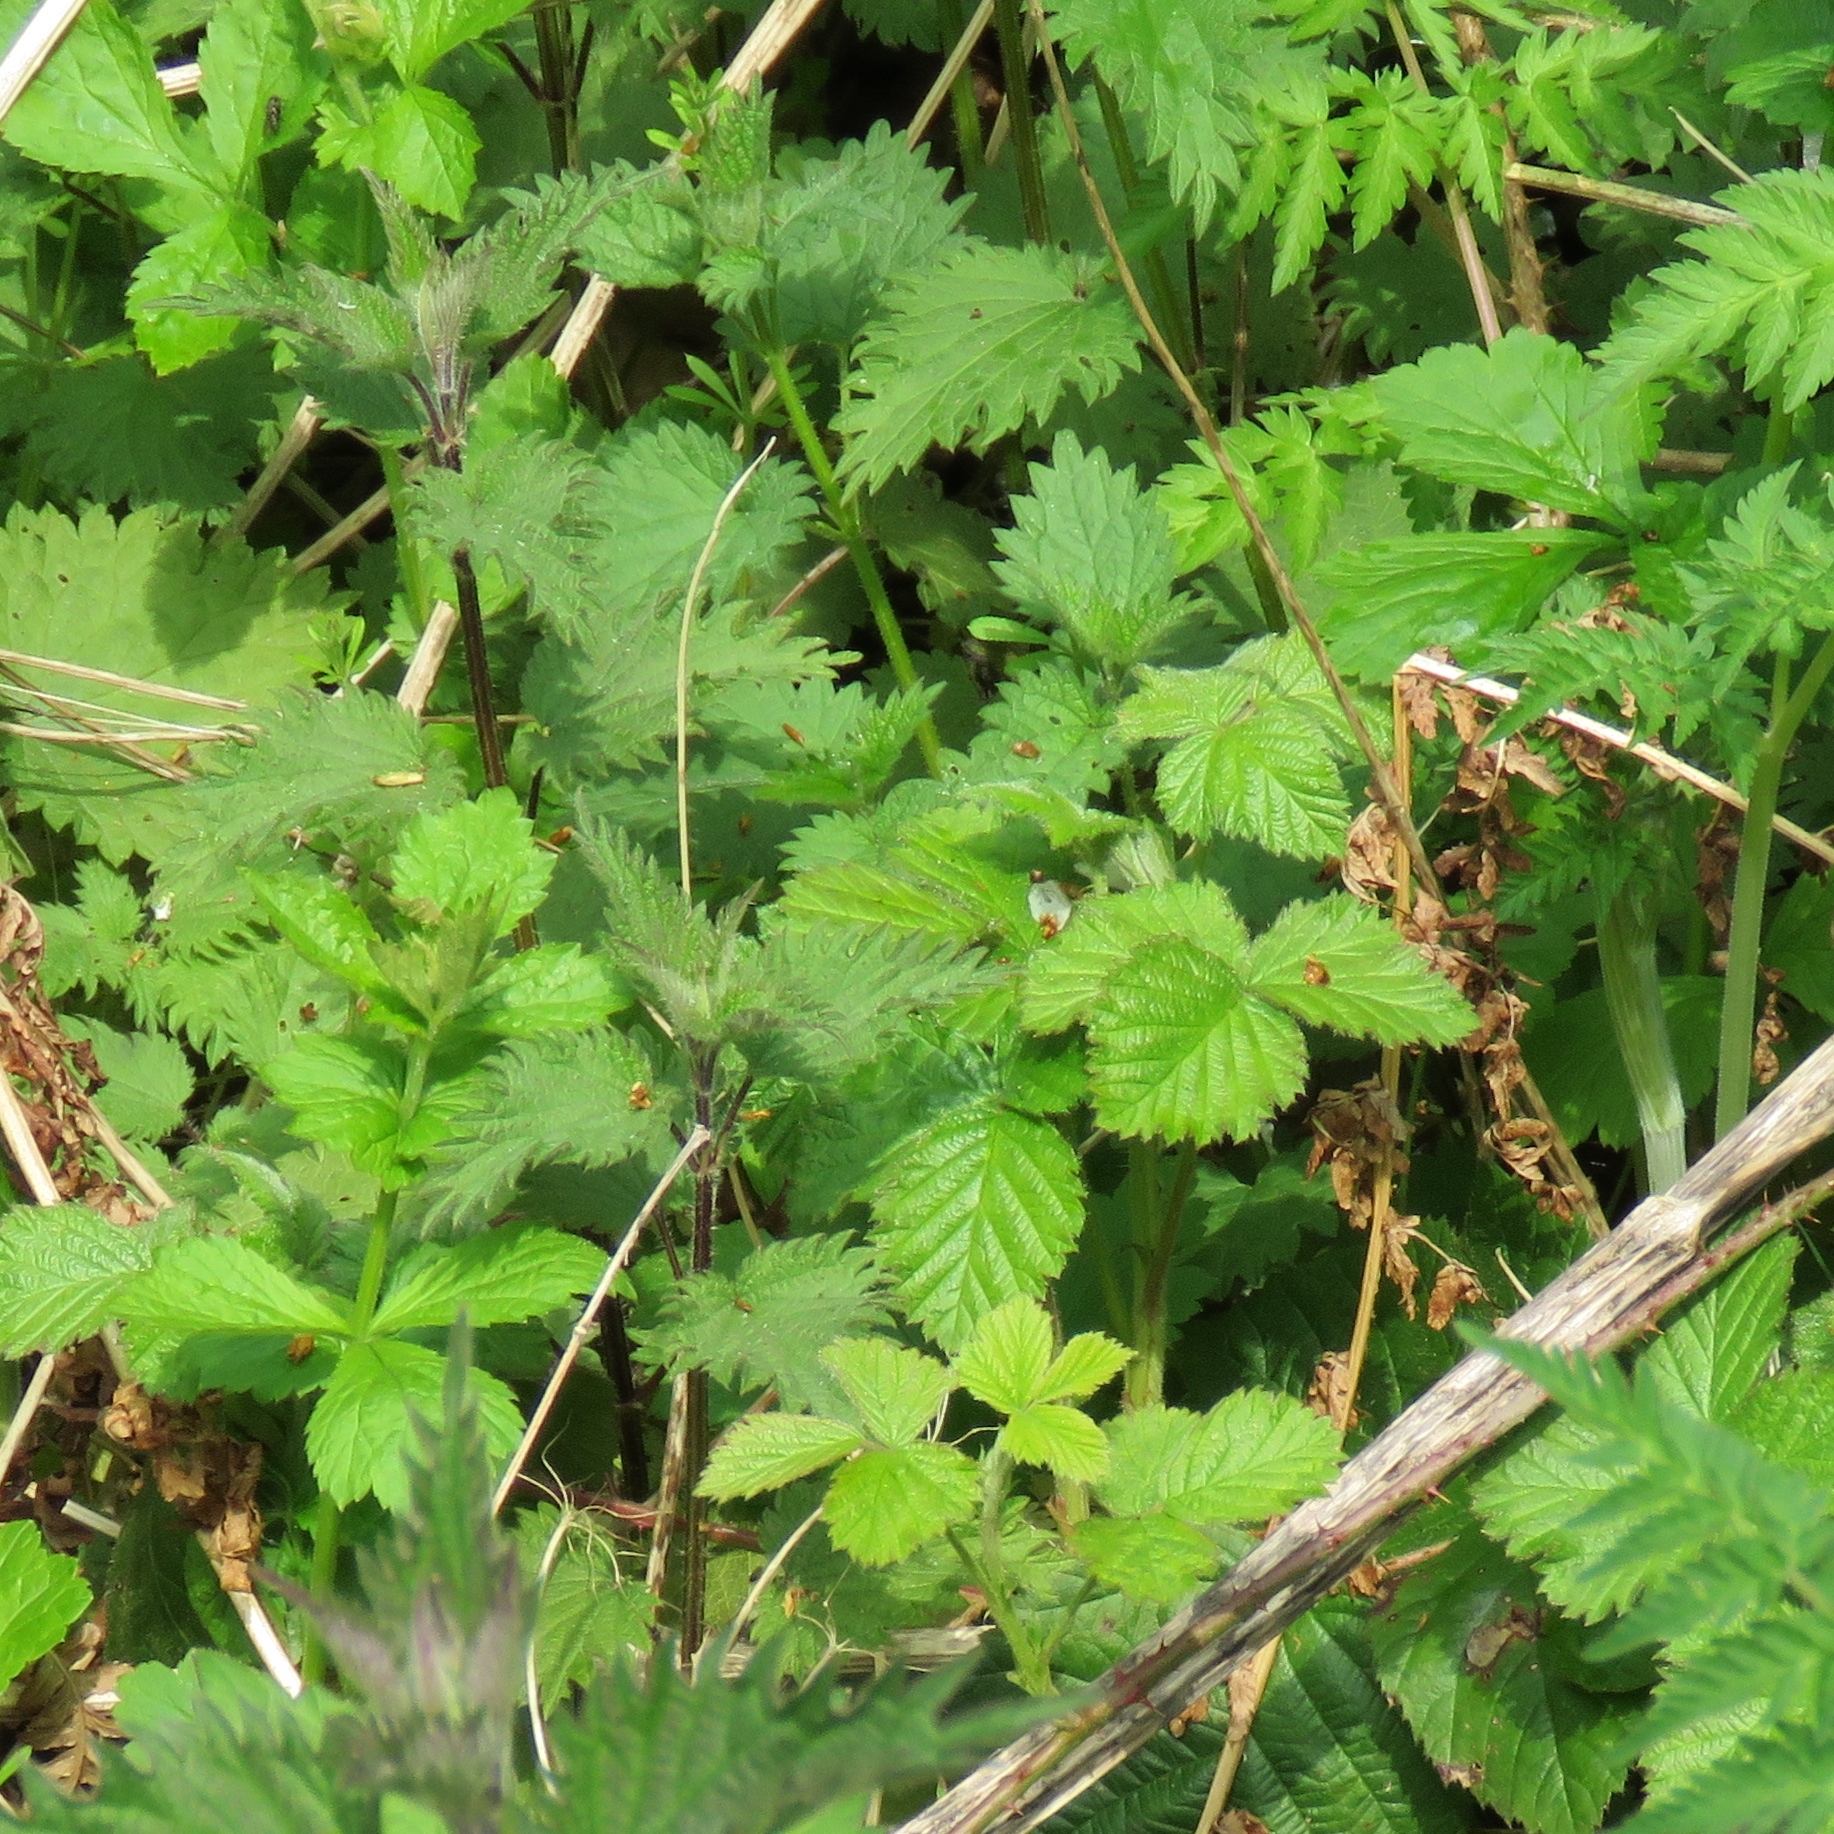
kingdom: Plantae
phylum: Tracheophyta
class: Magnoliopsida
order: Rosales
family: Urticaceae
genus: Urtica
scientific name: Urtica dioica
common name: Common nettle
